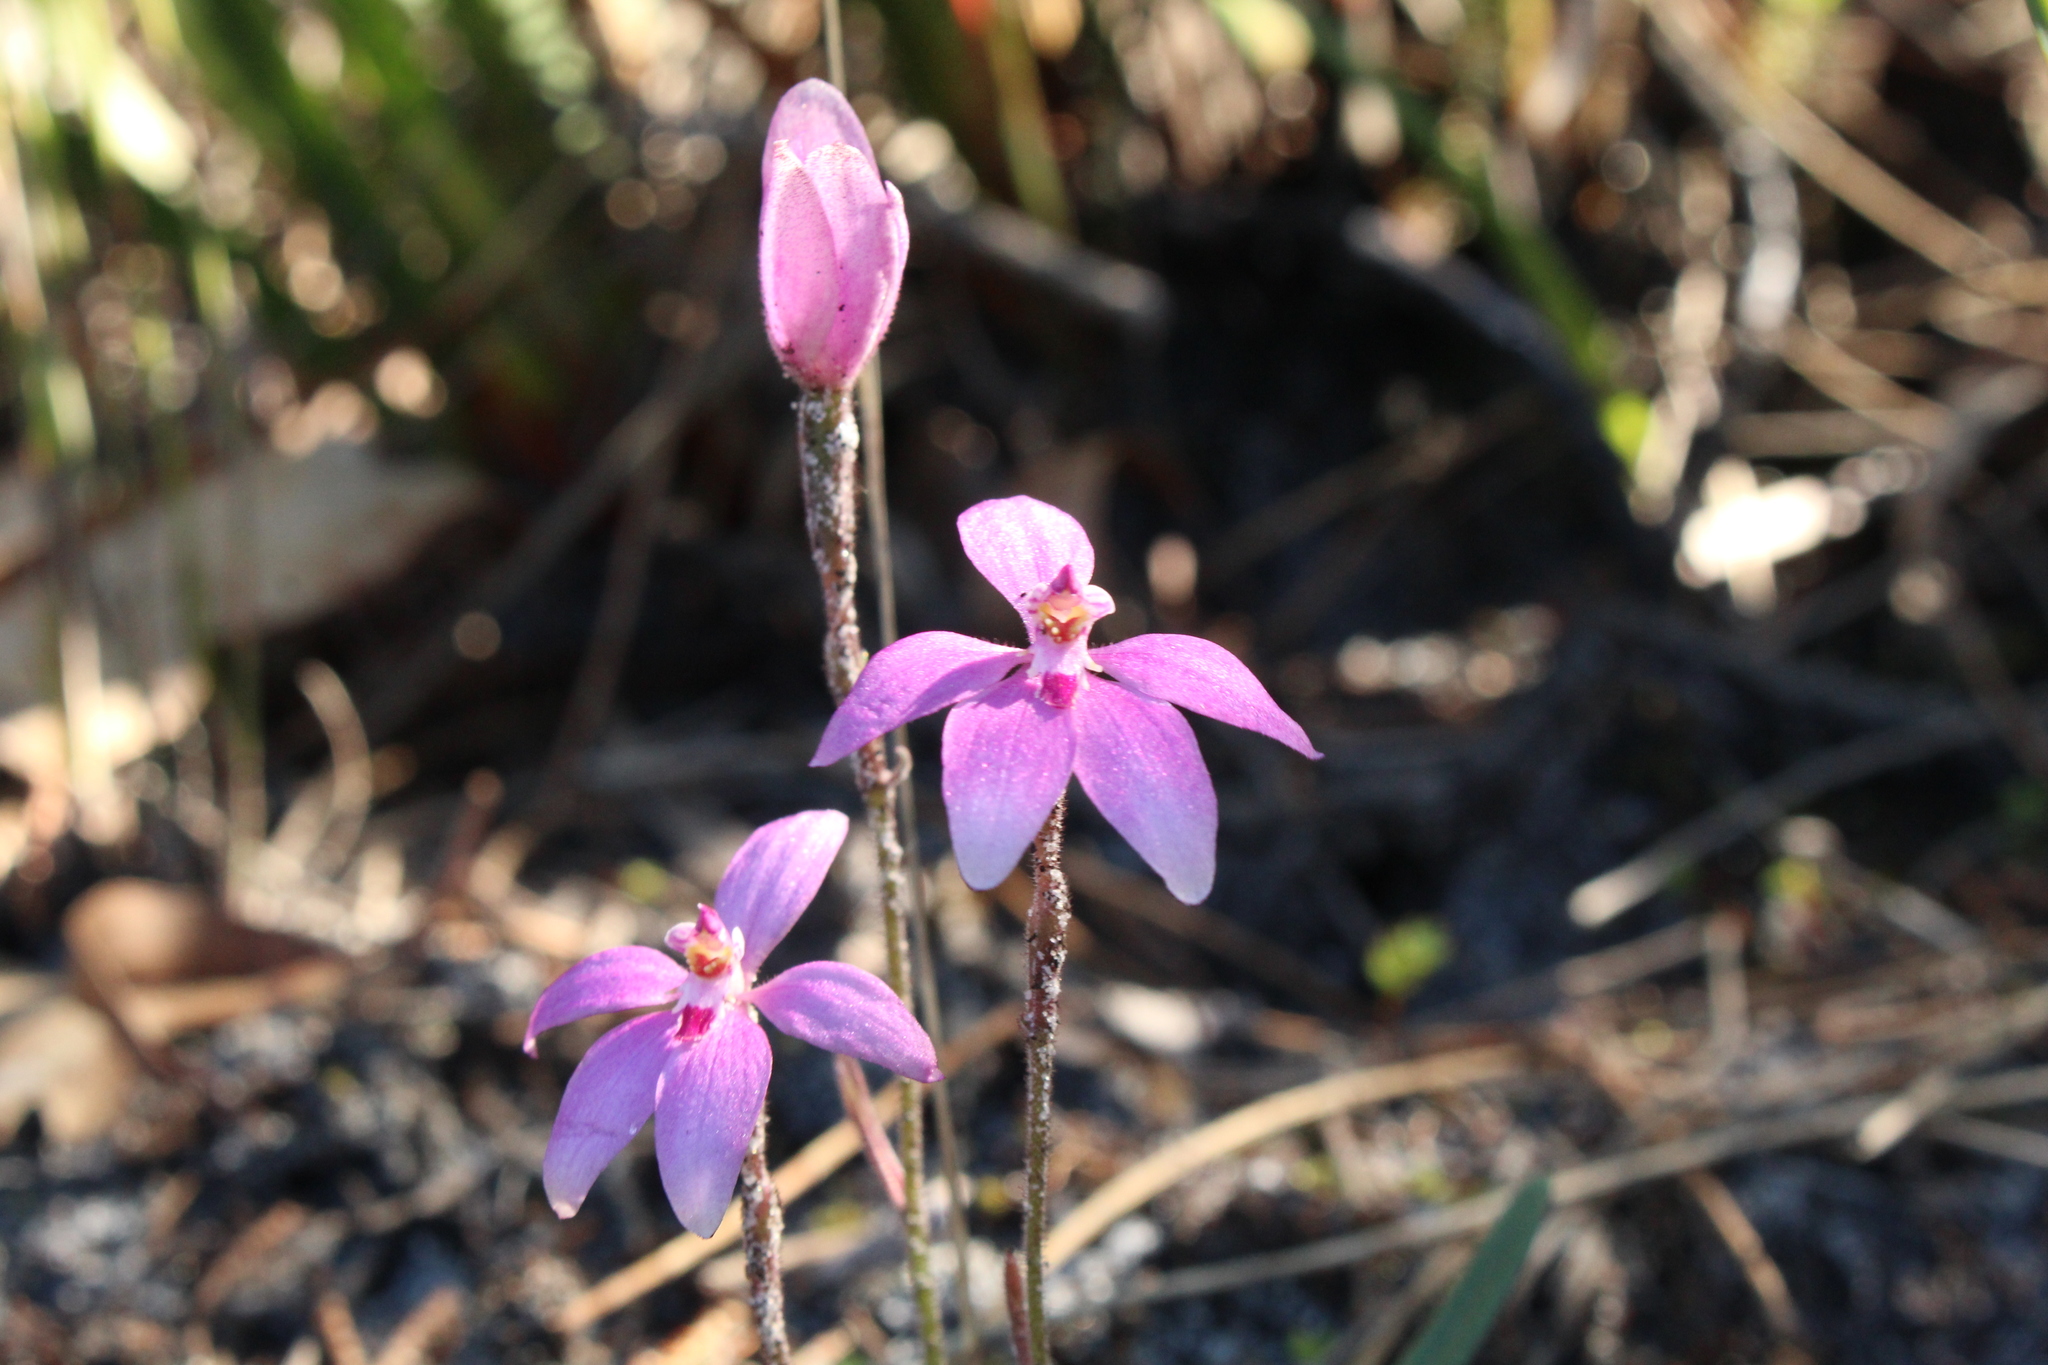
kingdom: Plantae
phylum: Tracheophyta
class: Liliopsida
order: Asparagales
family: Orchidaceae
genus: Caladenia
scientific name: Caladenia reptans
